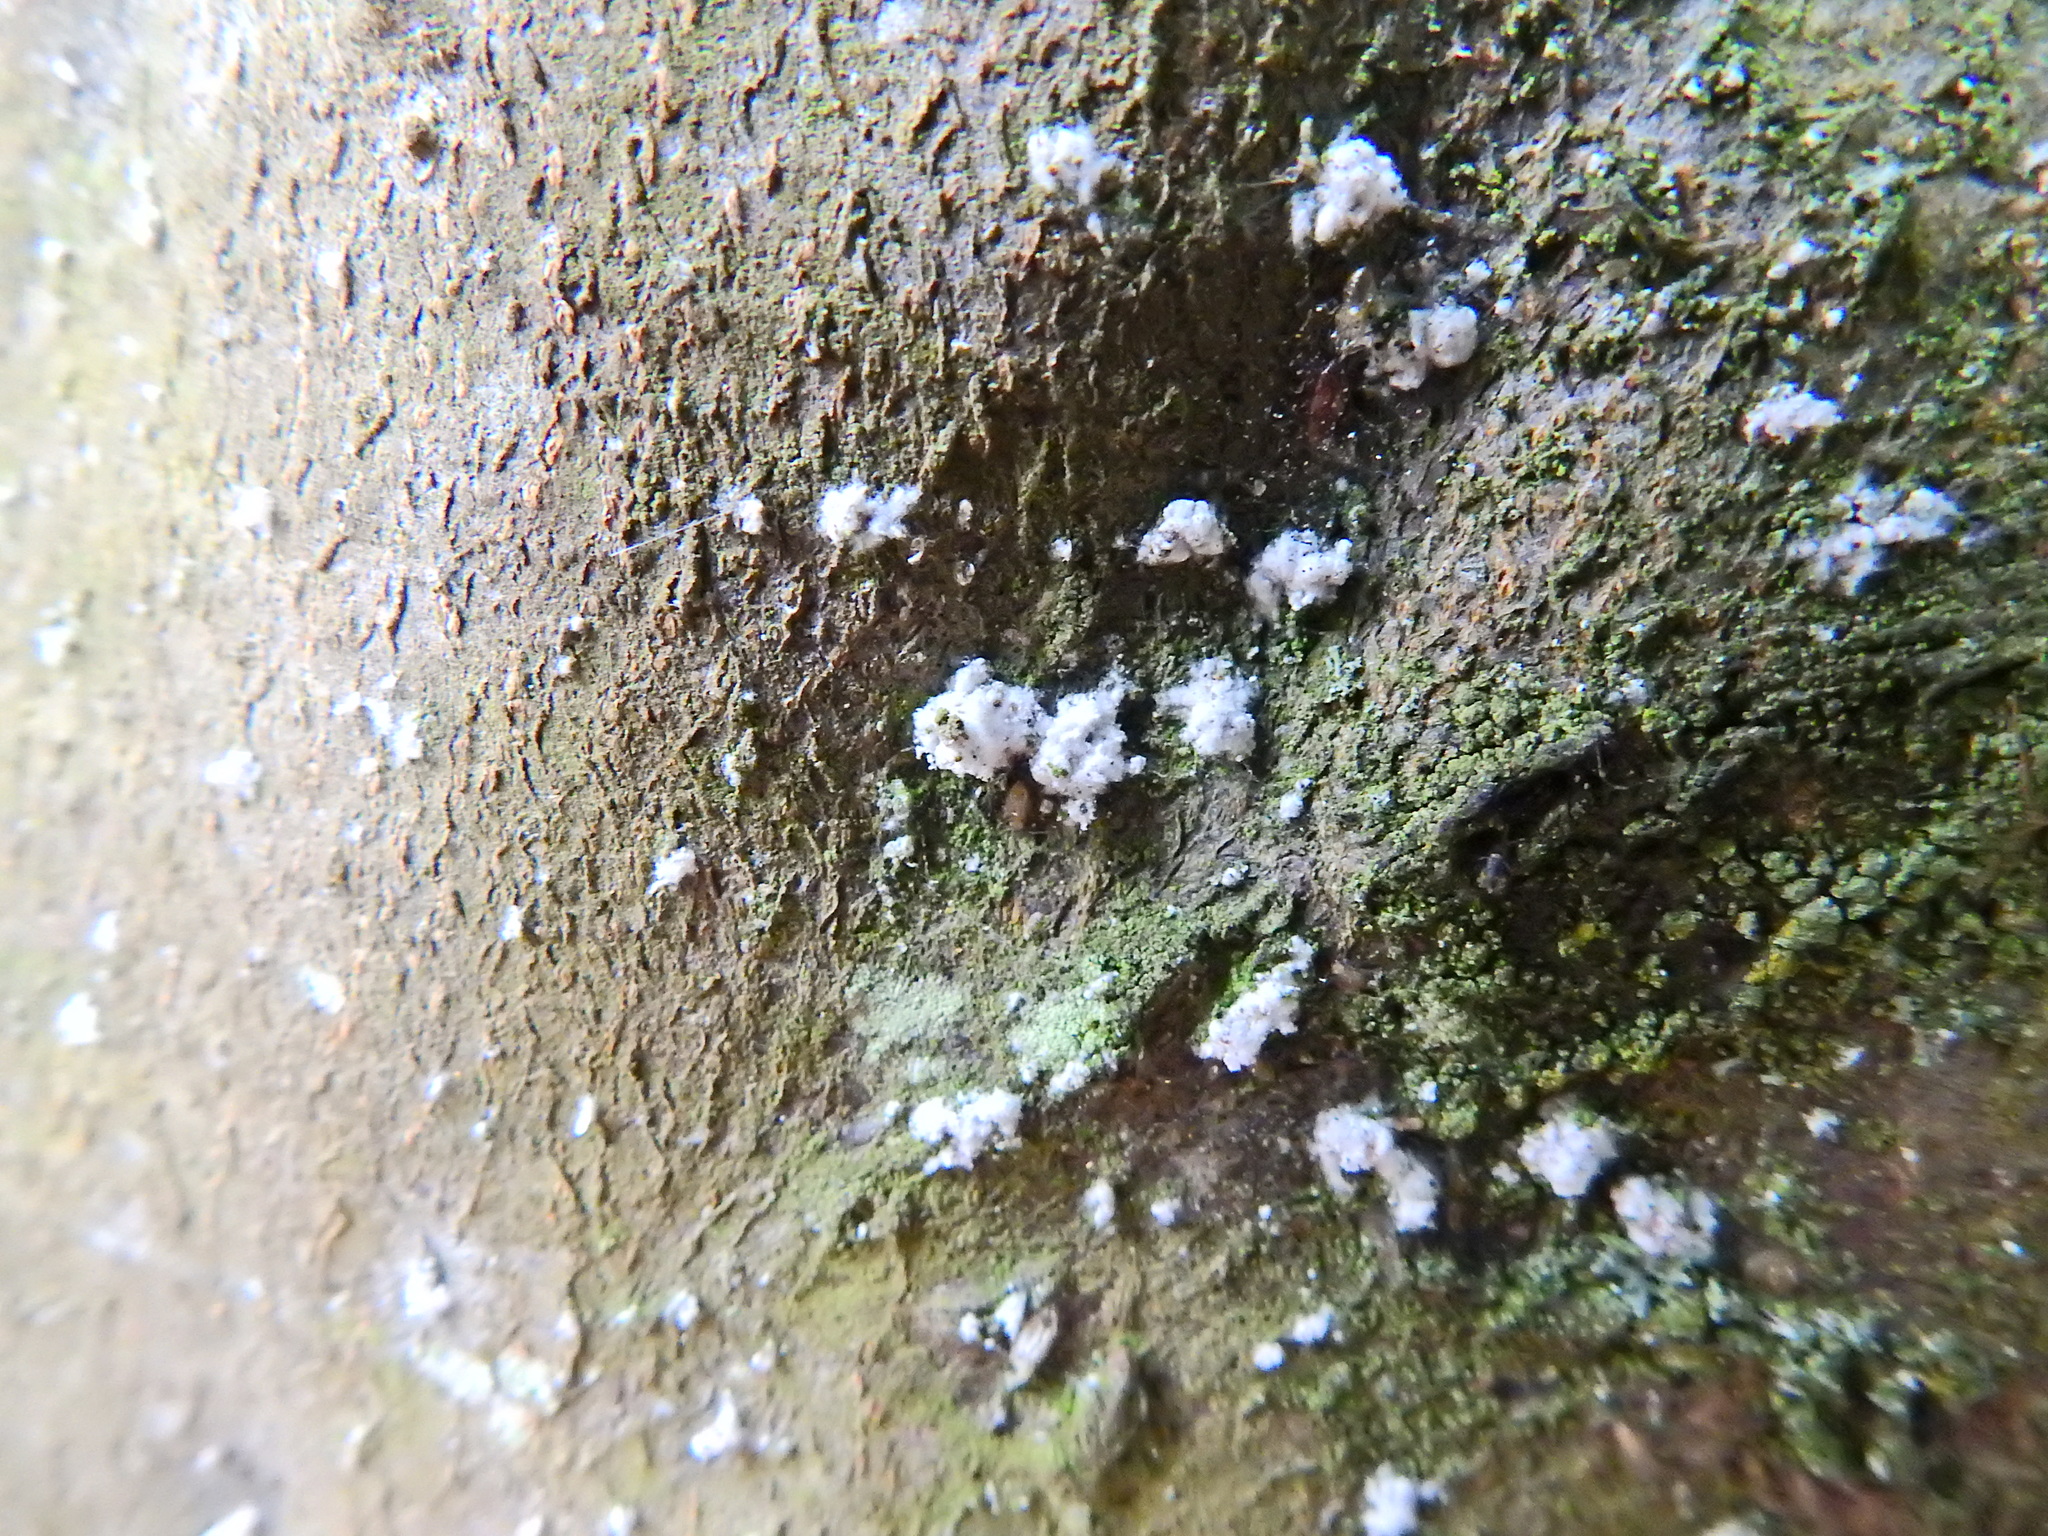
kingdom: Animalia
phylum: Arthropoda
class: Insecta
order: Hemiptera
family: Eriococcidae
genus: Cryptococcus
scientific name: Cryptococcus fagisuga
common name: Beech scale
